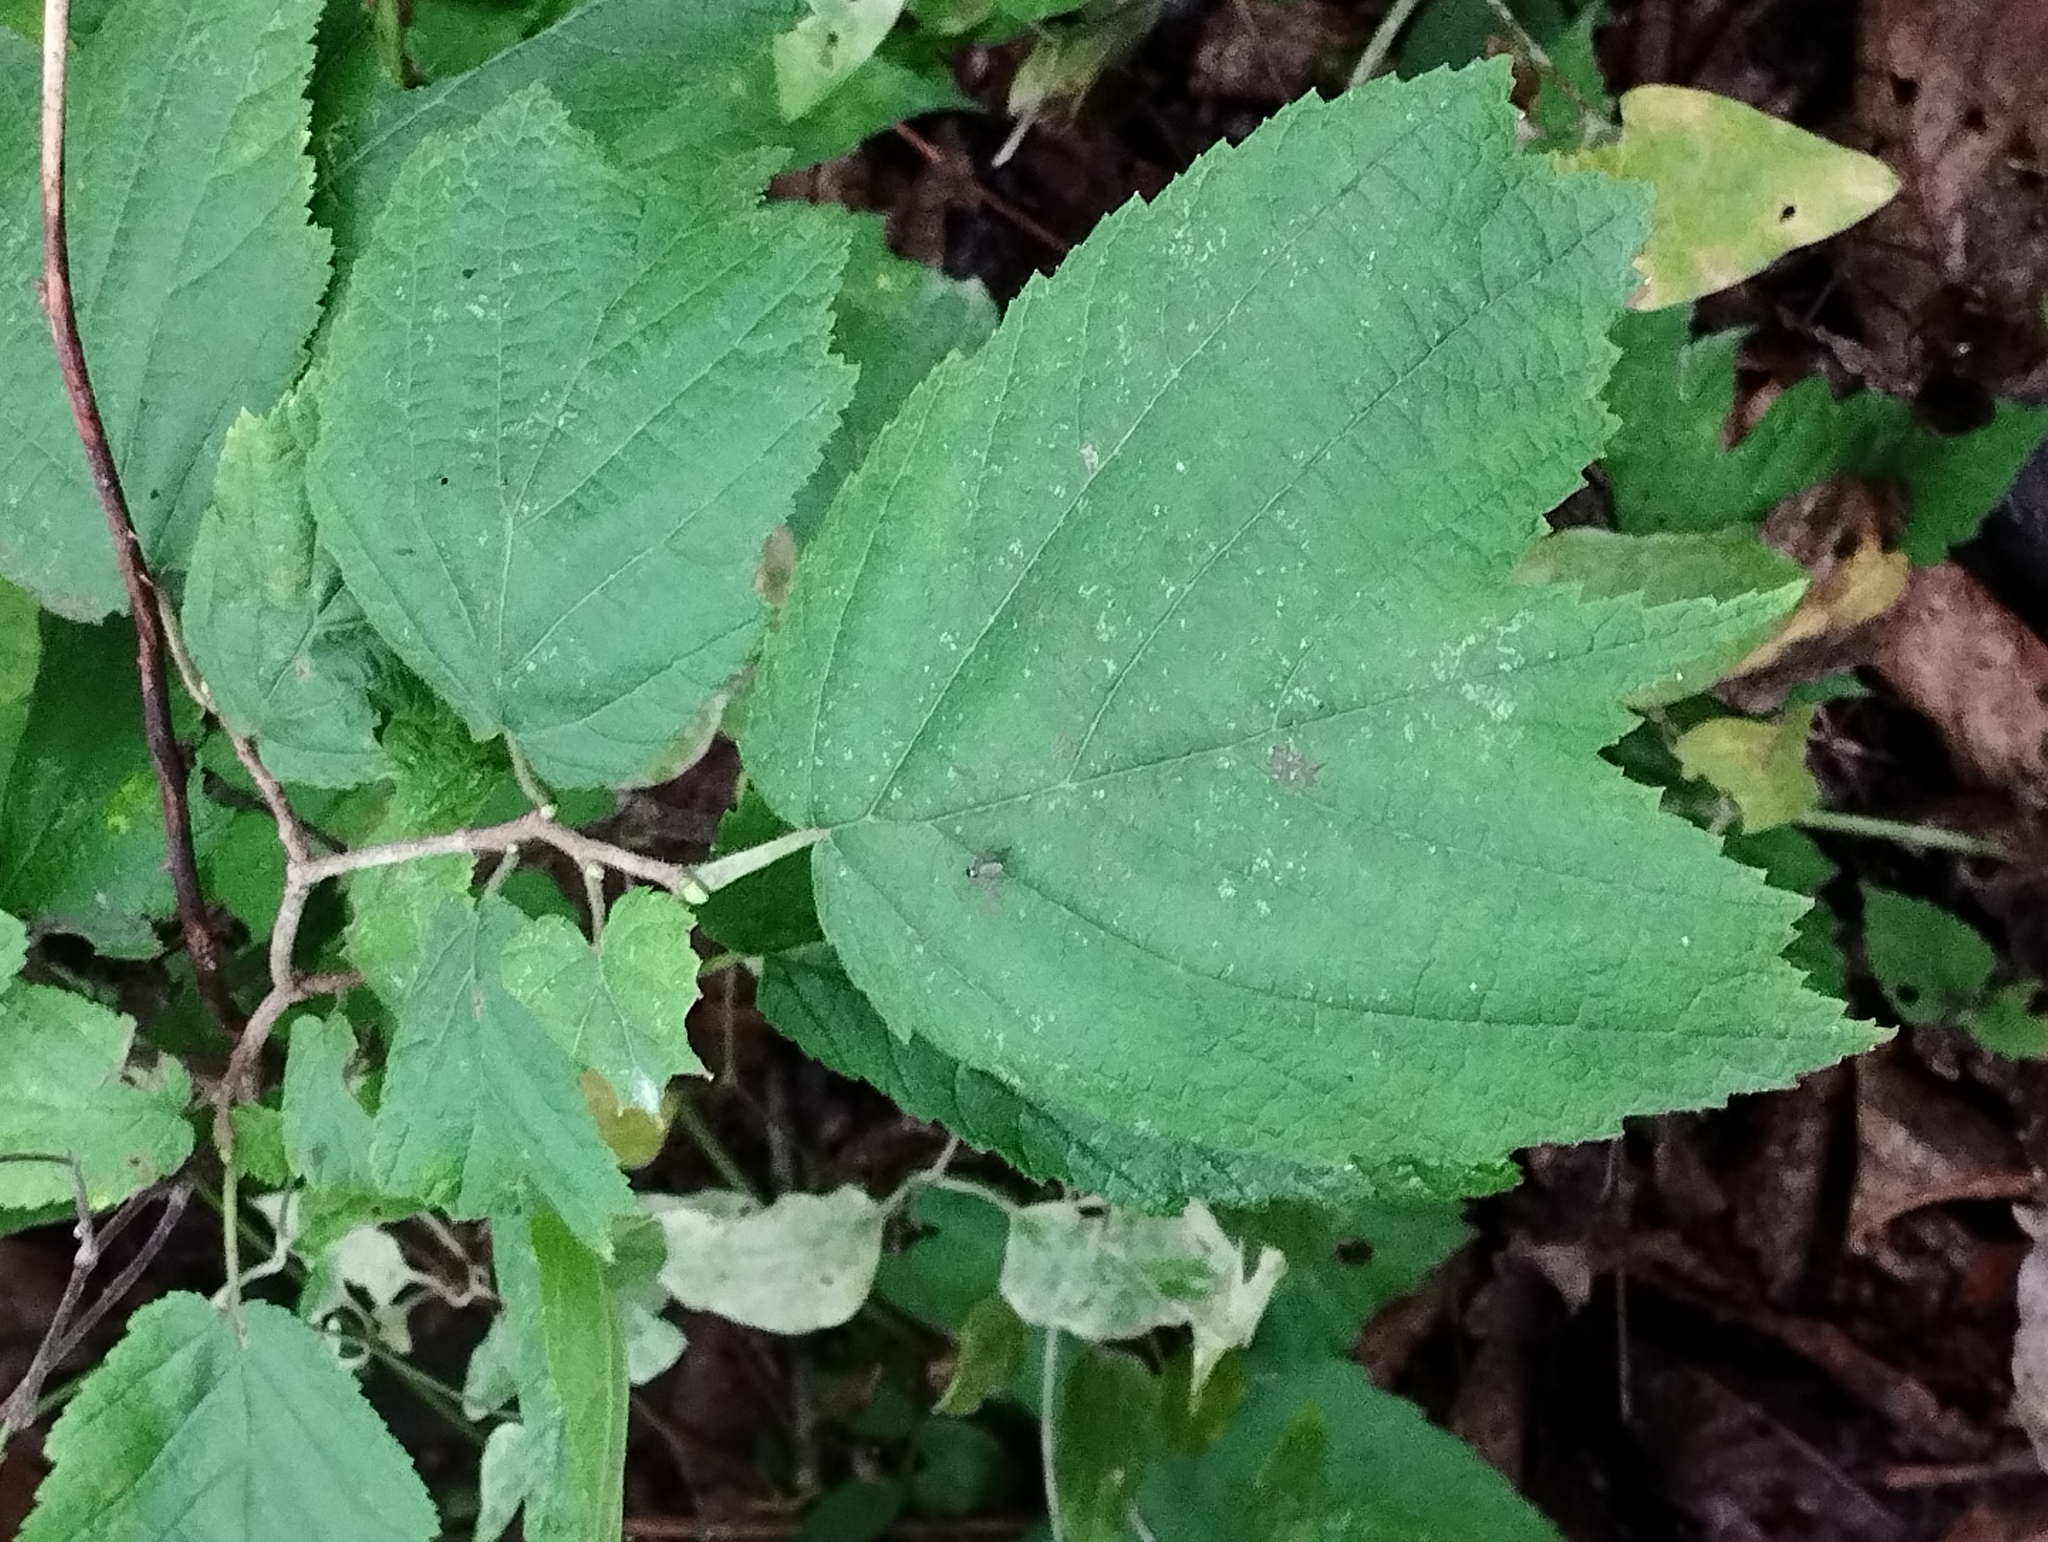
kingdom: Plantae
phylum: Tracheophyta
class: Magnoliopsida
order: Fagales
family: Betulaceae
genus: Corylus
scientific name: Corylus heterophylla
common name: Siberian hazelnut
